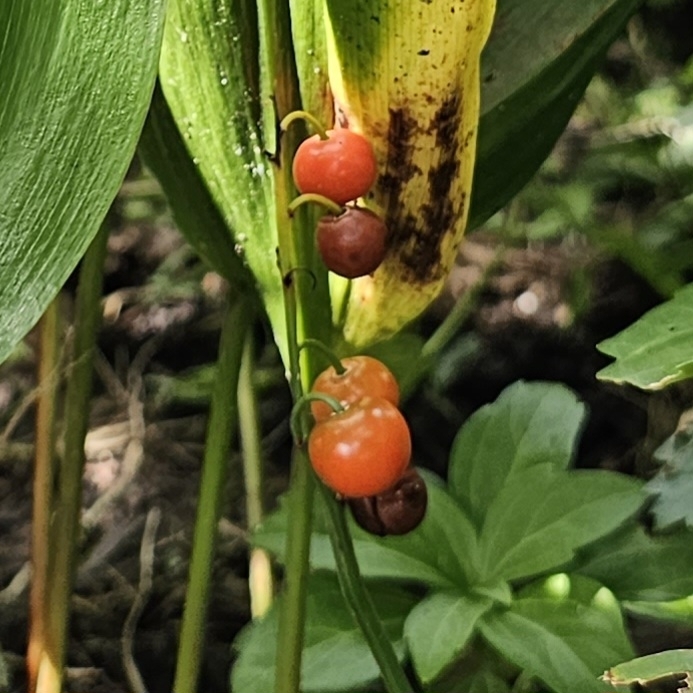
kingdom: Plantae
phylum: Tracheophyta
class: Liliopsida
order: Asparagales
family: Asparagaceae
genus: Convallaria
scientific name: Convallaria majalis
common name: Lily-of-the-valley
